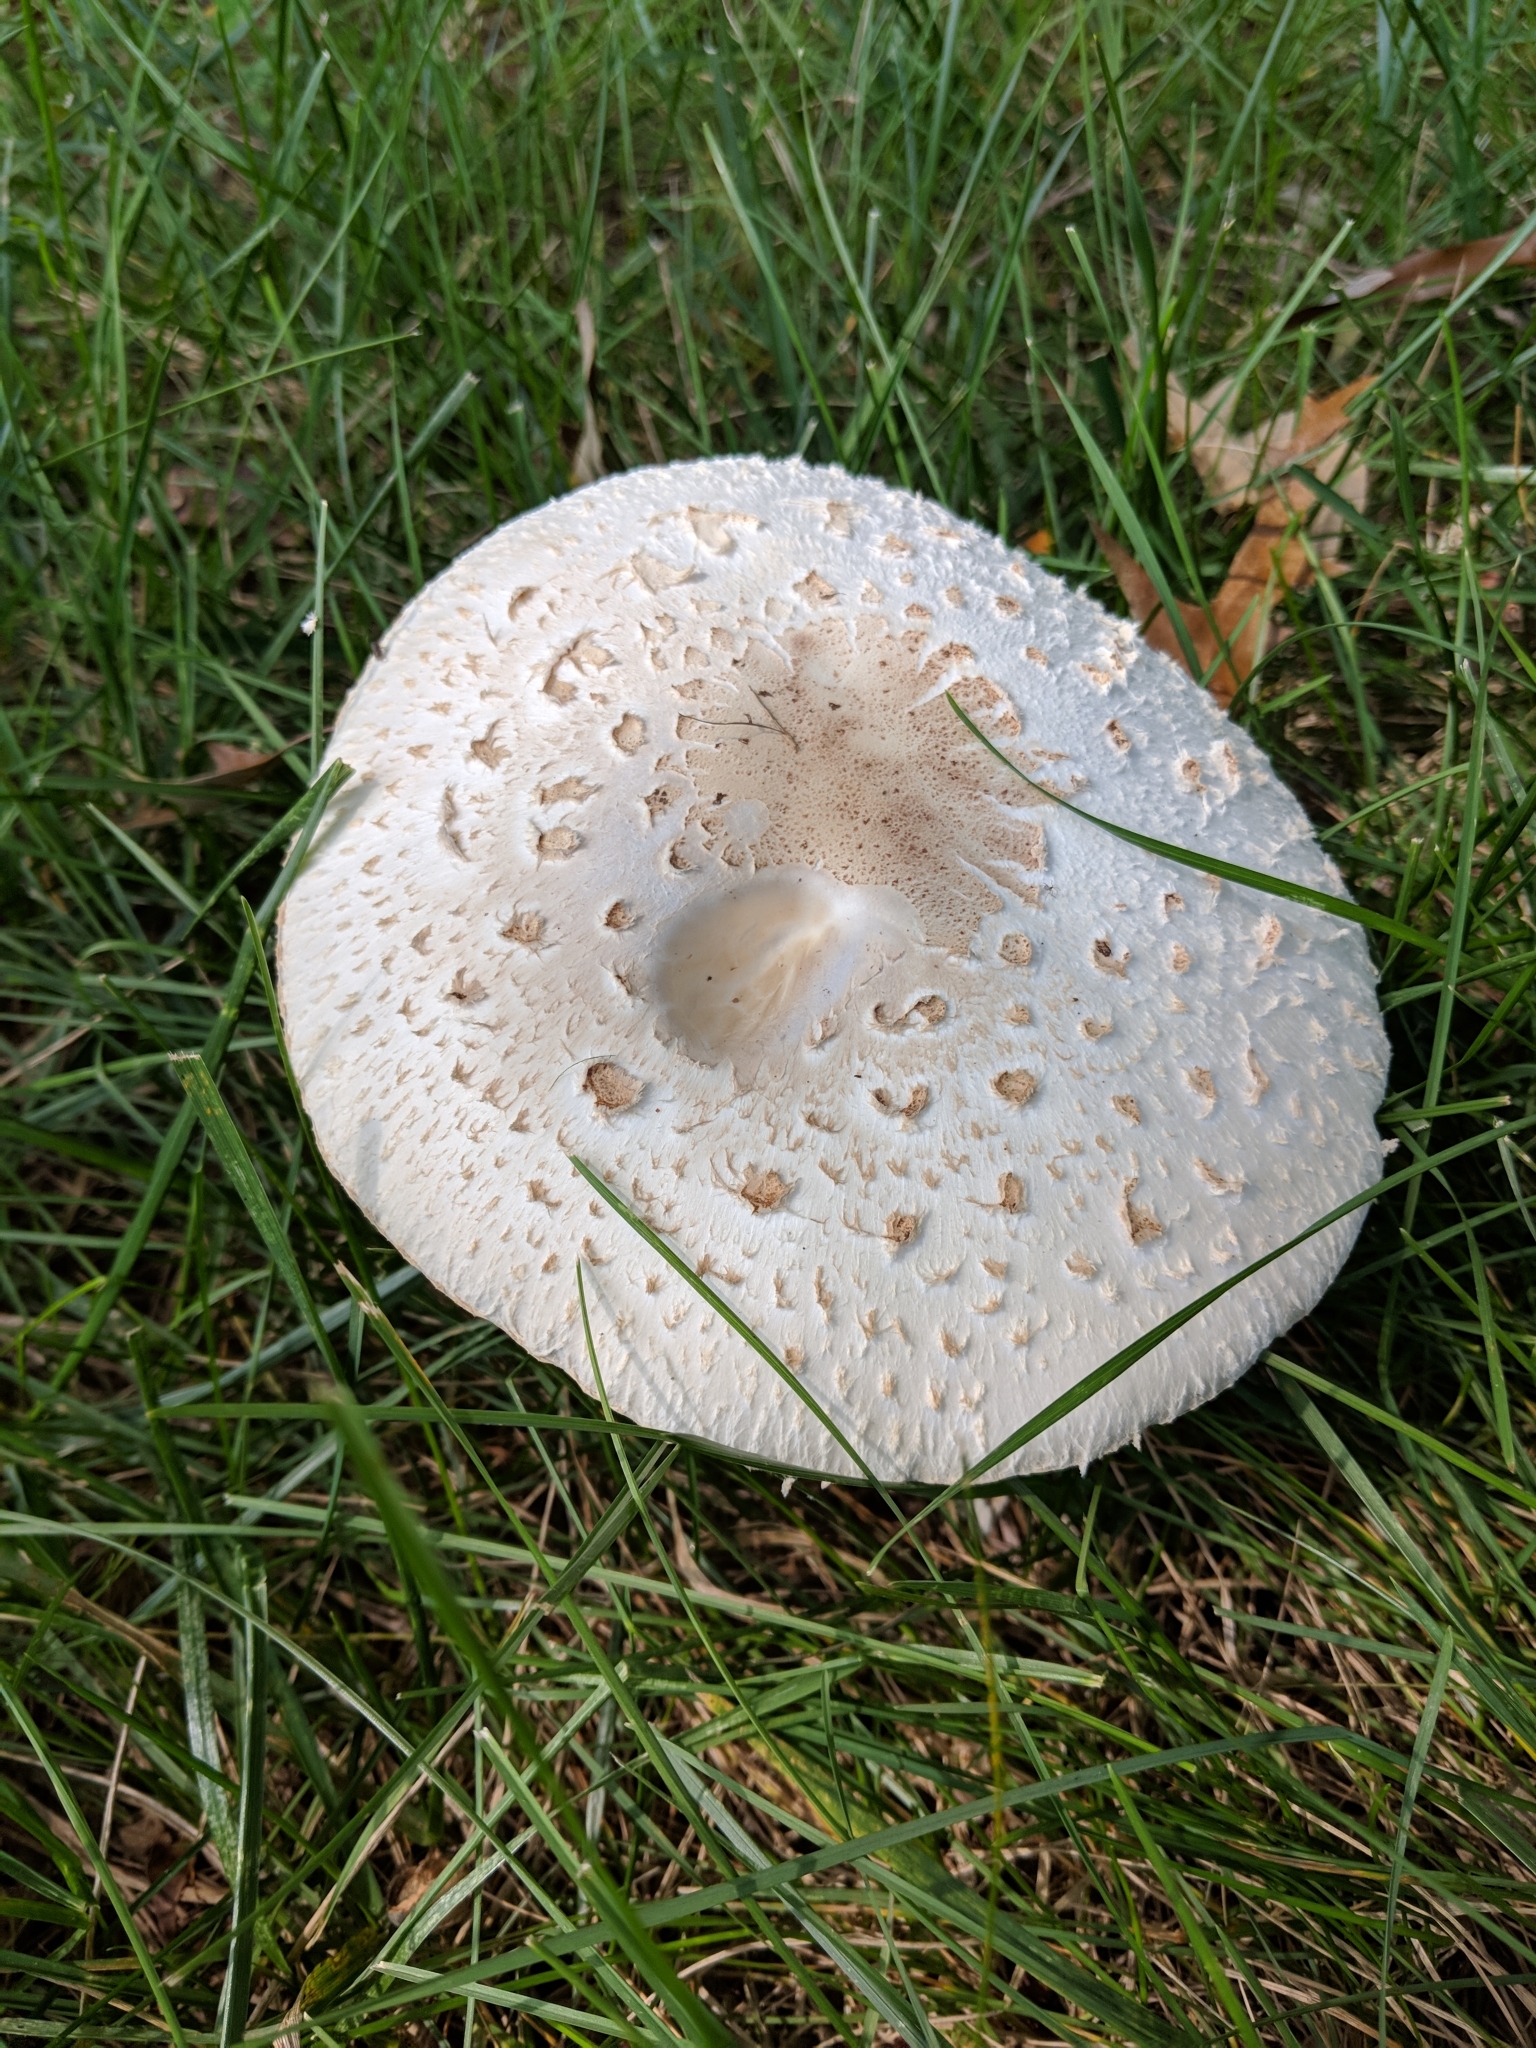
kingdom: Fungi
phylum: Basidiomycota
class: Agaricomycetes
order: Agaricales
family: Agaricaceae
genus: Chlorophyllum
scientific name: Chlorophyllum molybdites
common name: False parasol
